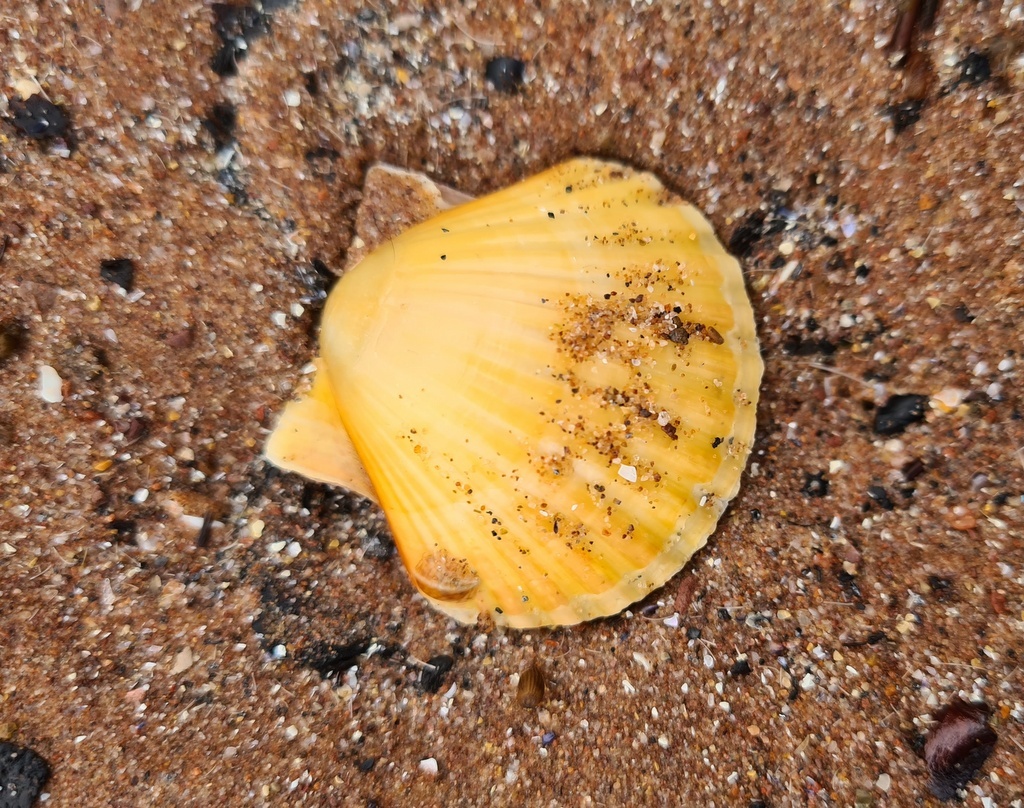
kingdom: Animalia
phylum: Mollusca
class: Bivalvia
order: Pectinida
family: Pectinidae
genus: Aequipecten
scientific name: Aequipecten opercularis
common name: Queen scallop
